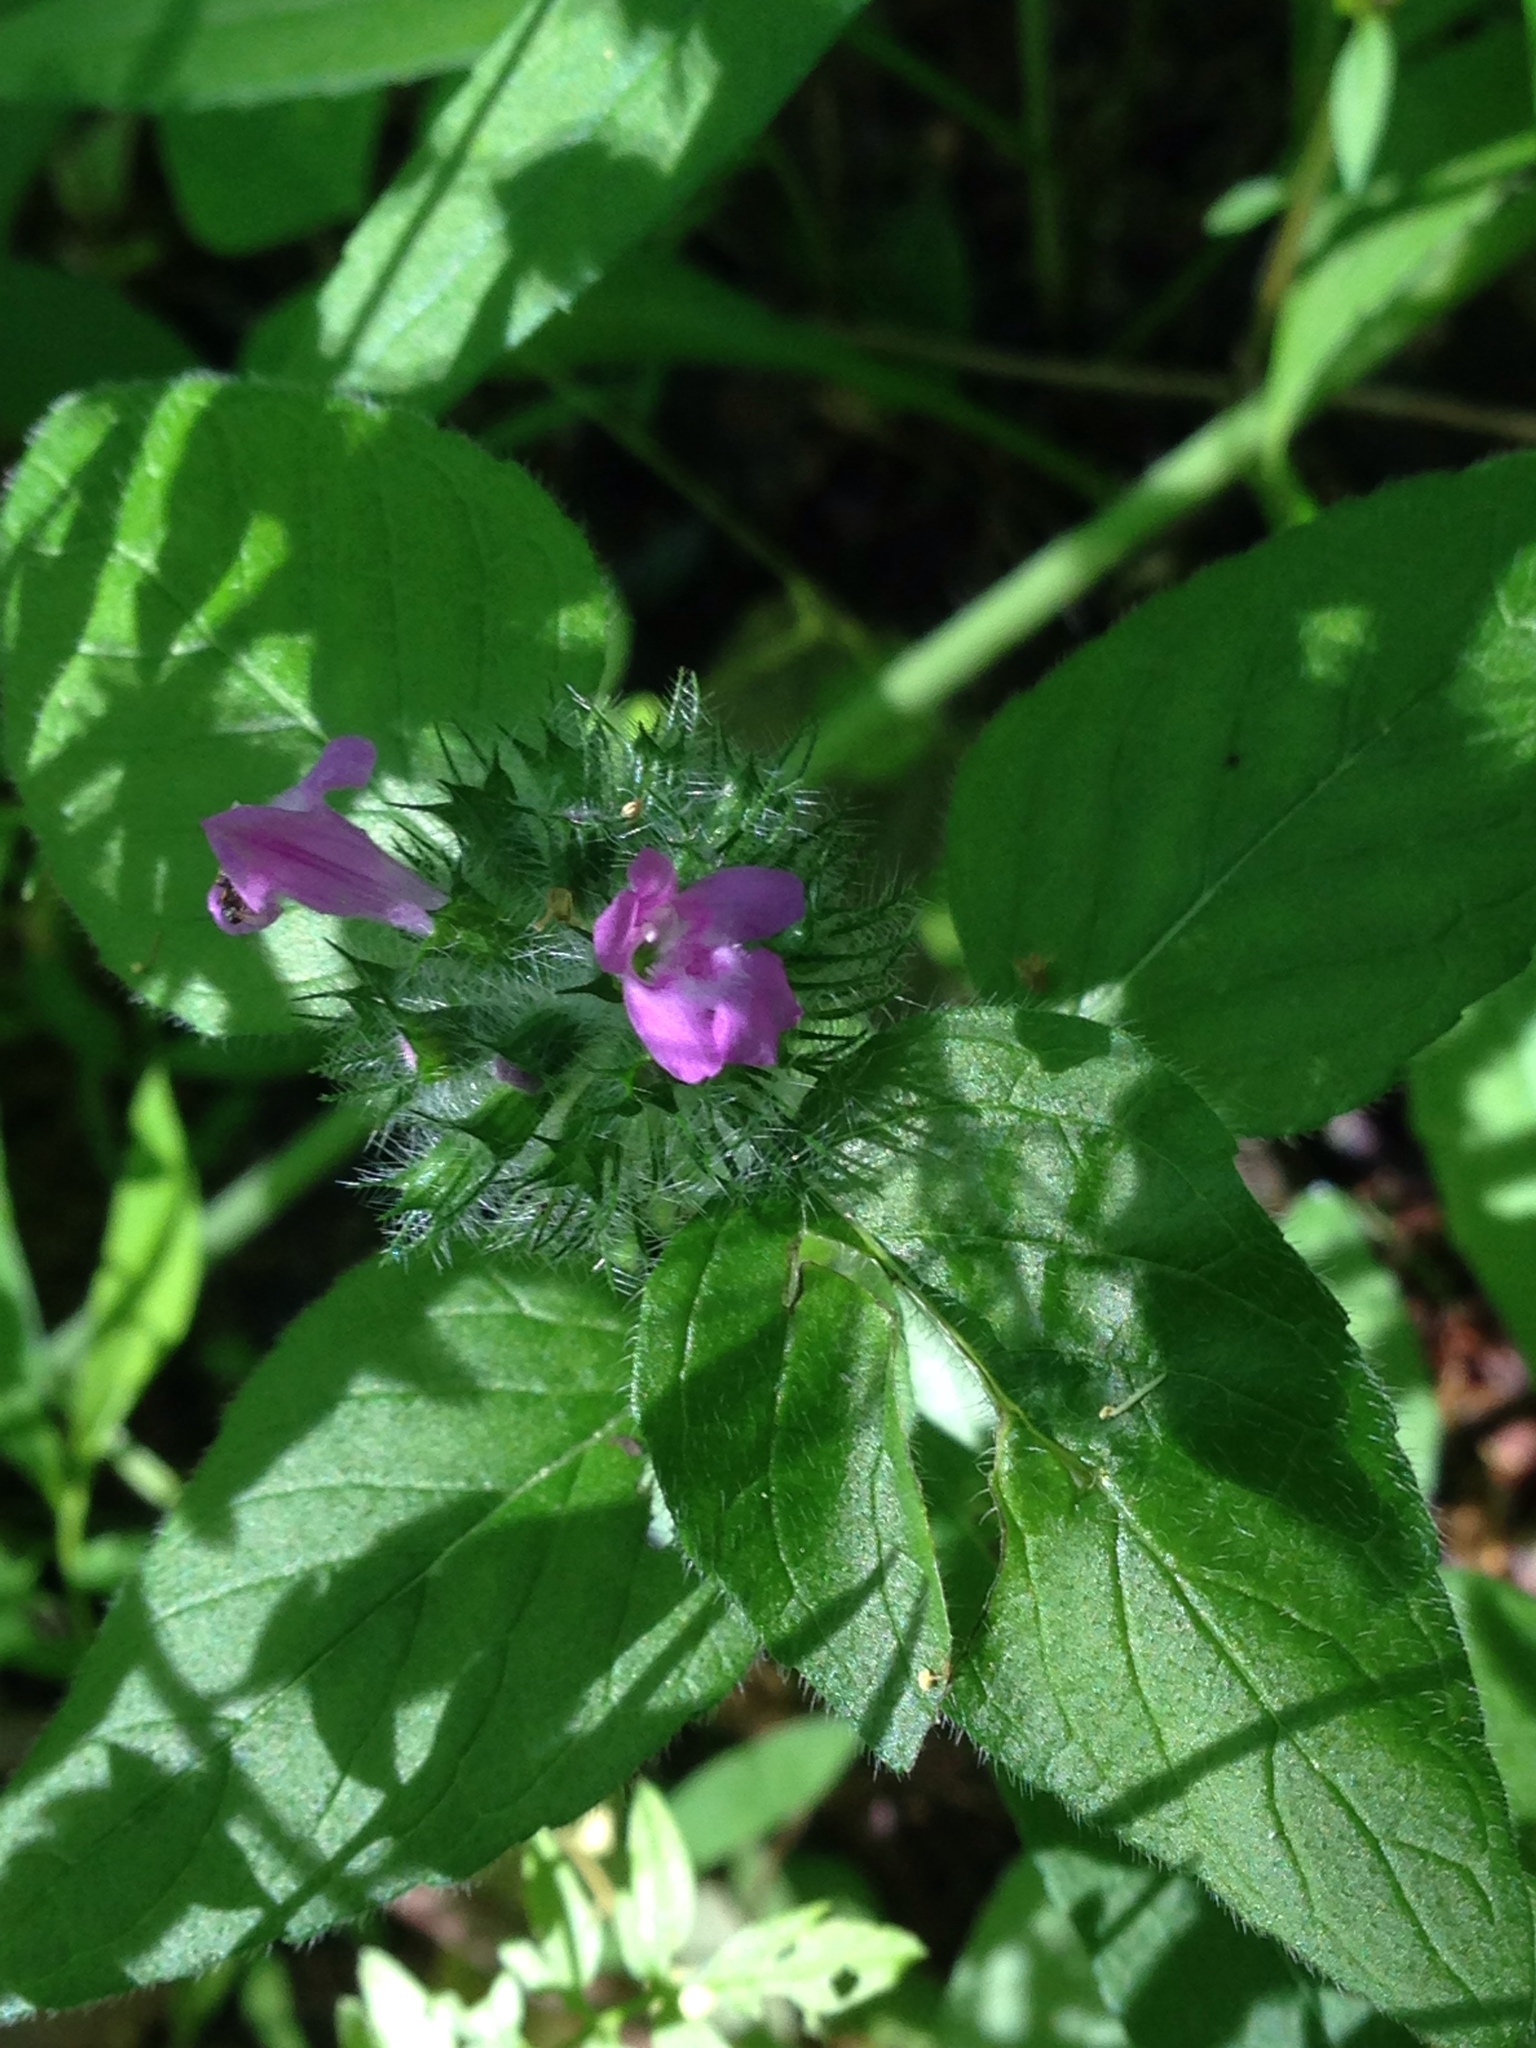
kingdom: Plantae
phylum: Tracheophyta
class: Magnoliopsida
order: Lamiales
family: Lamiaceae
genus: Clinopodium
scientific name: Clinopodium vulgare
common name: Wild basil
